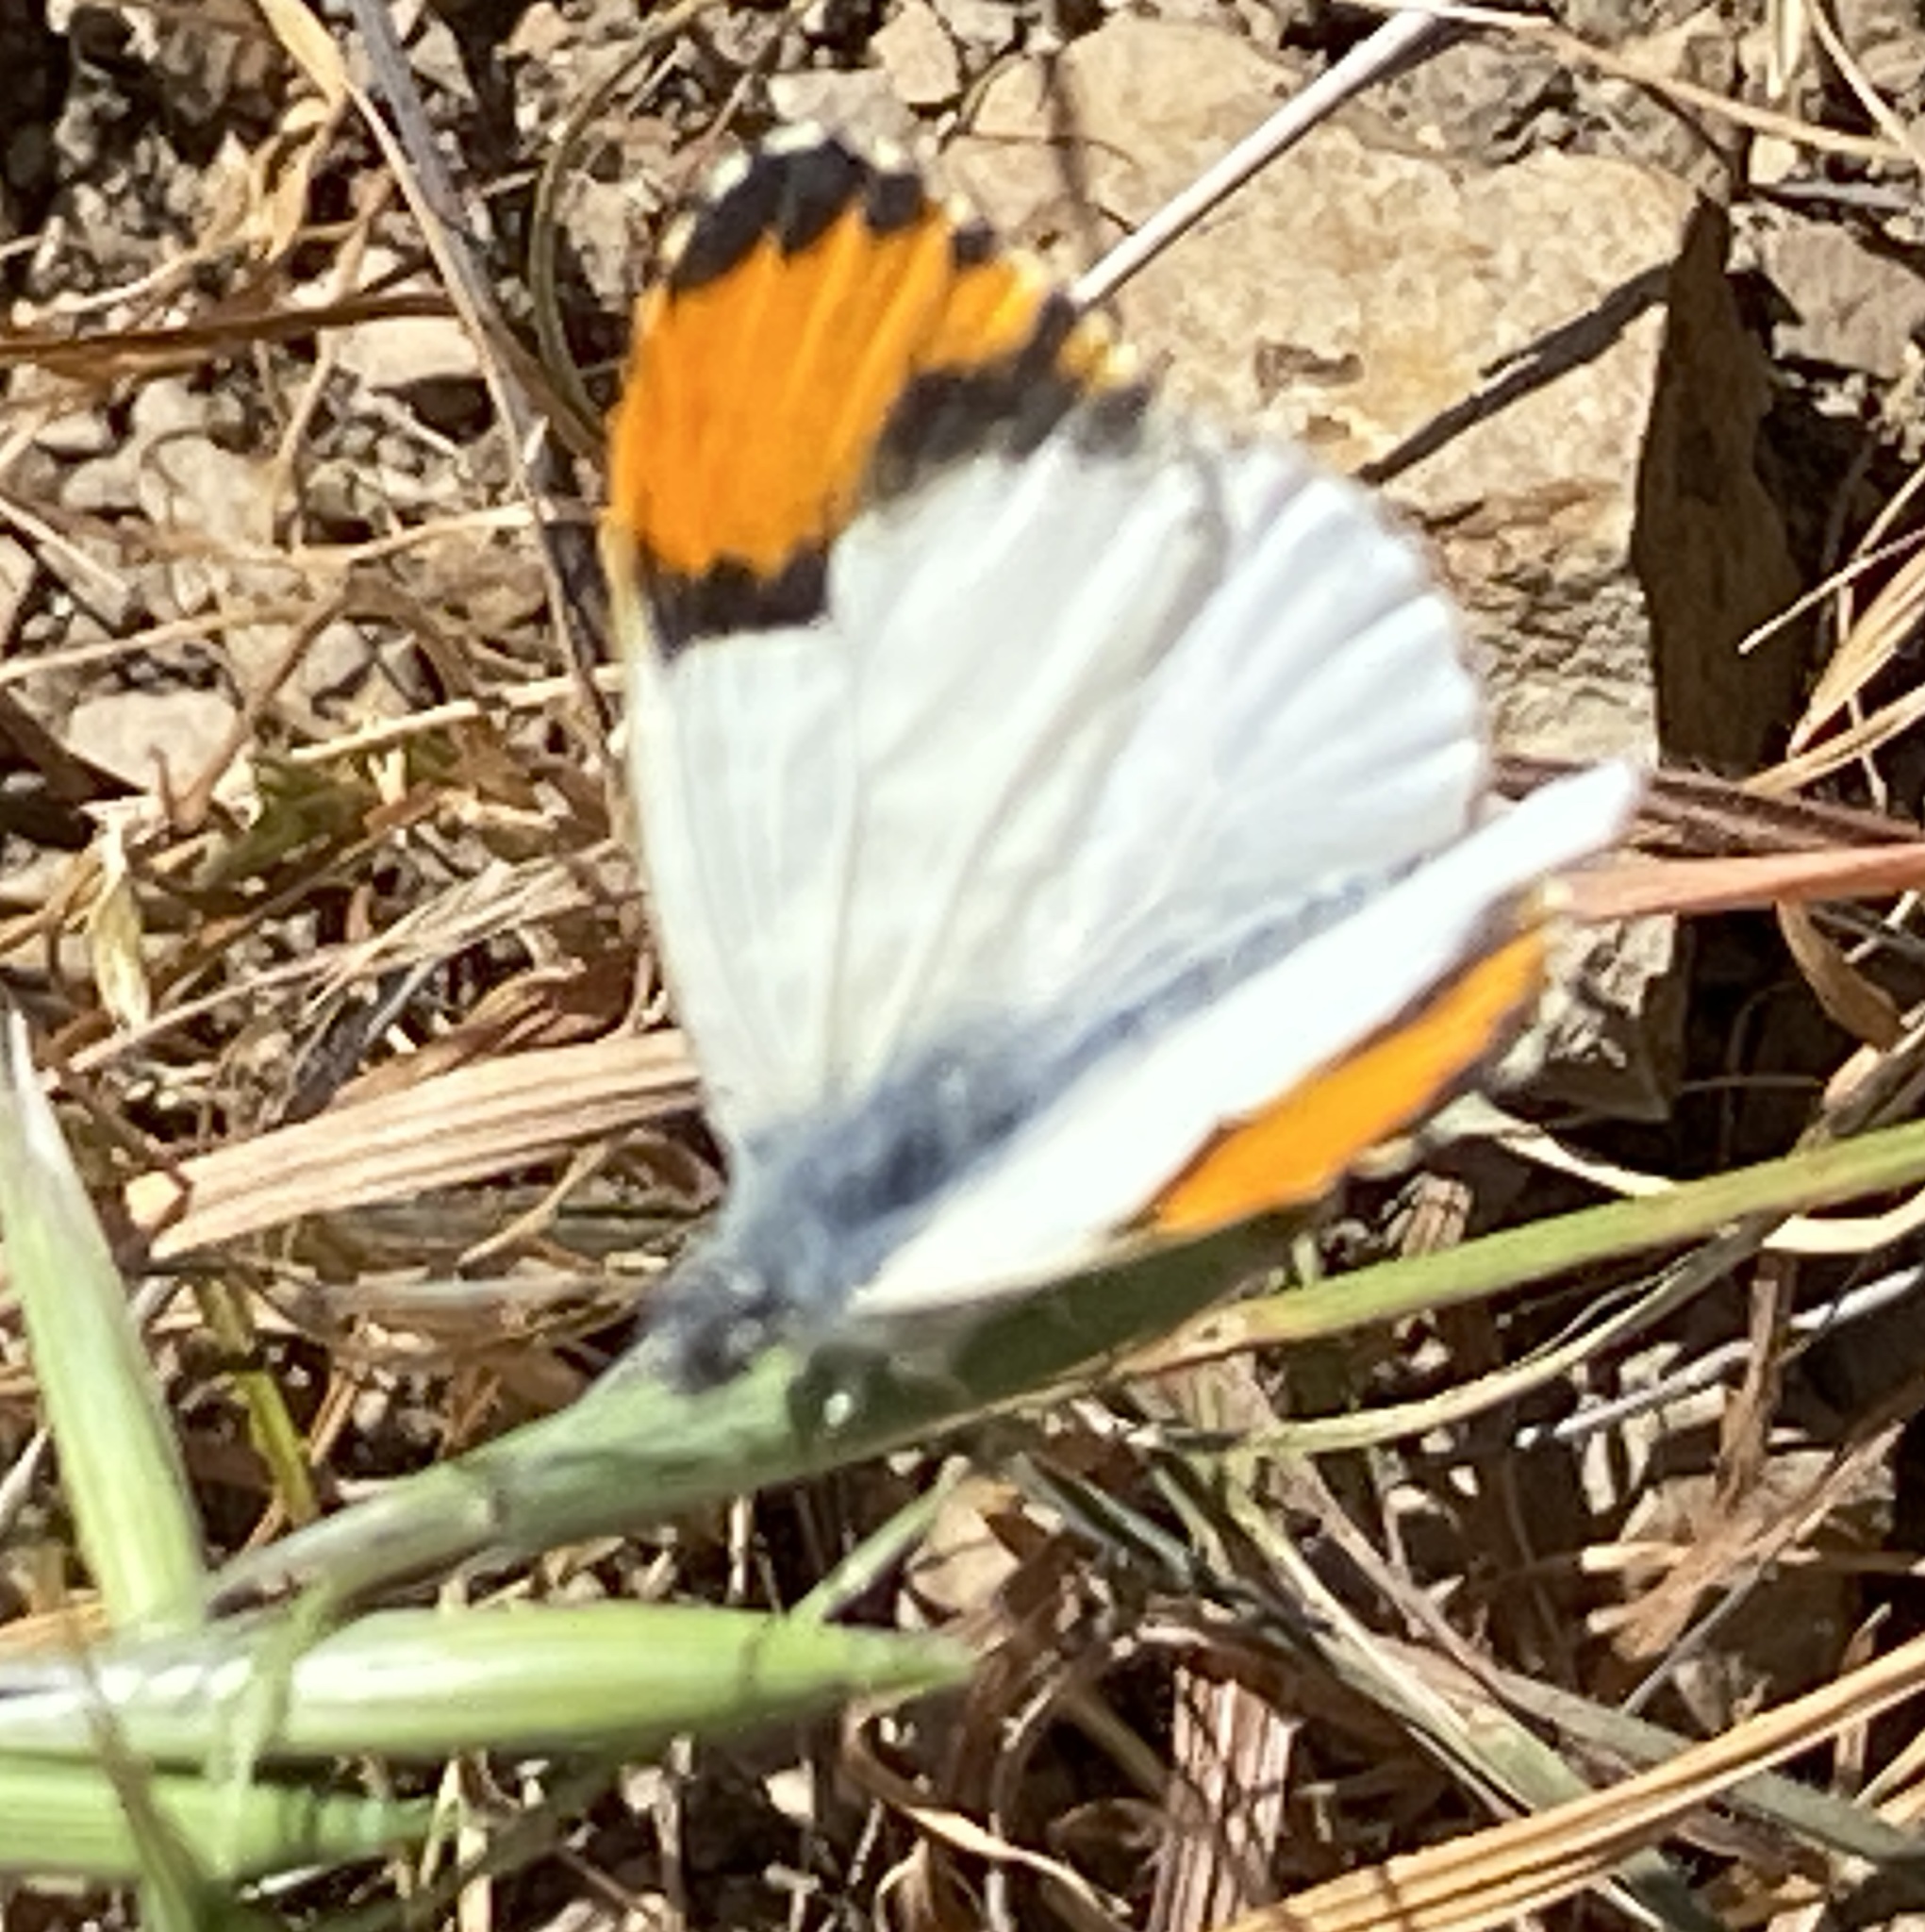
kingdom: Animalia
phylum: Arthropoda
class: Insecta
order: Lepidoptera
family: Pieridae
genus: Anthocharis
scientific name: Anthocharis sara
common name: Sara's orangetip
